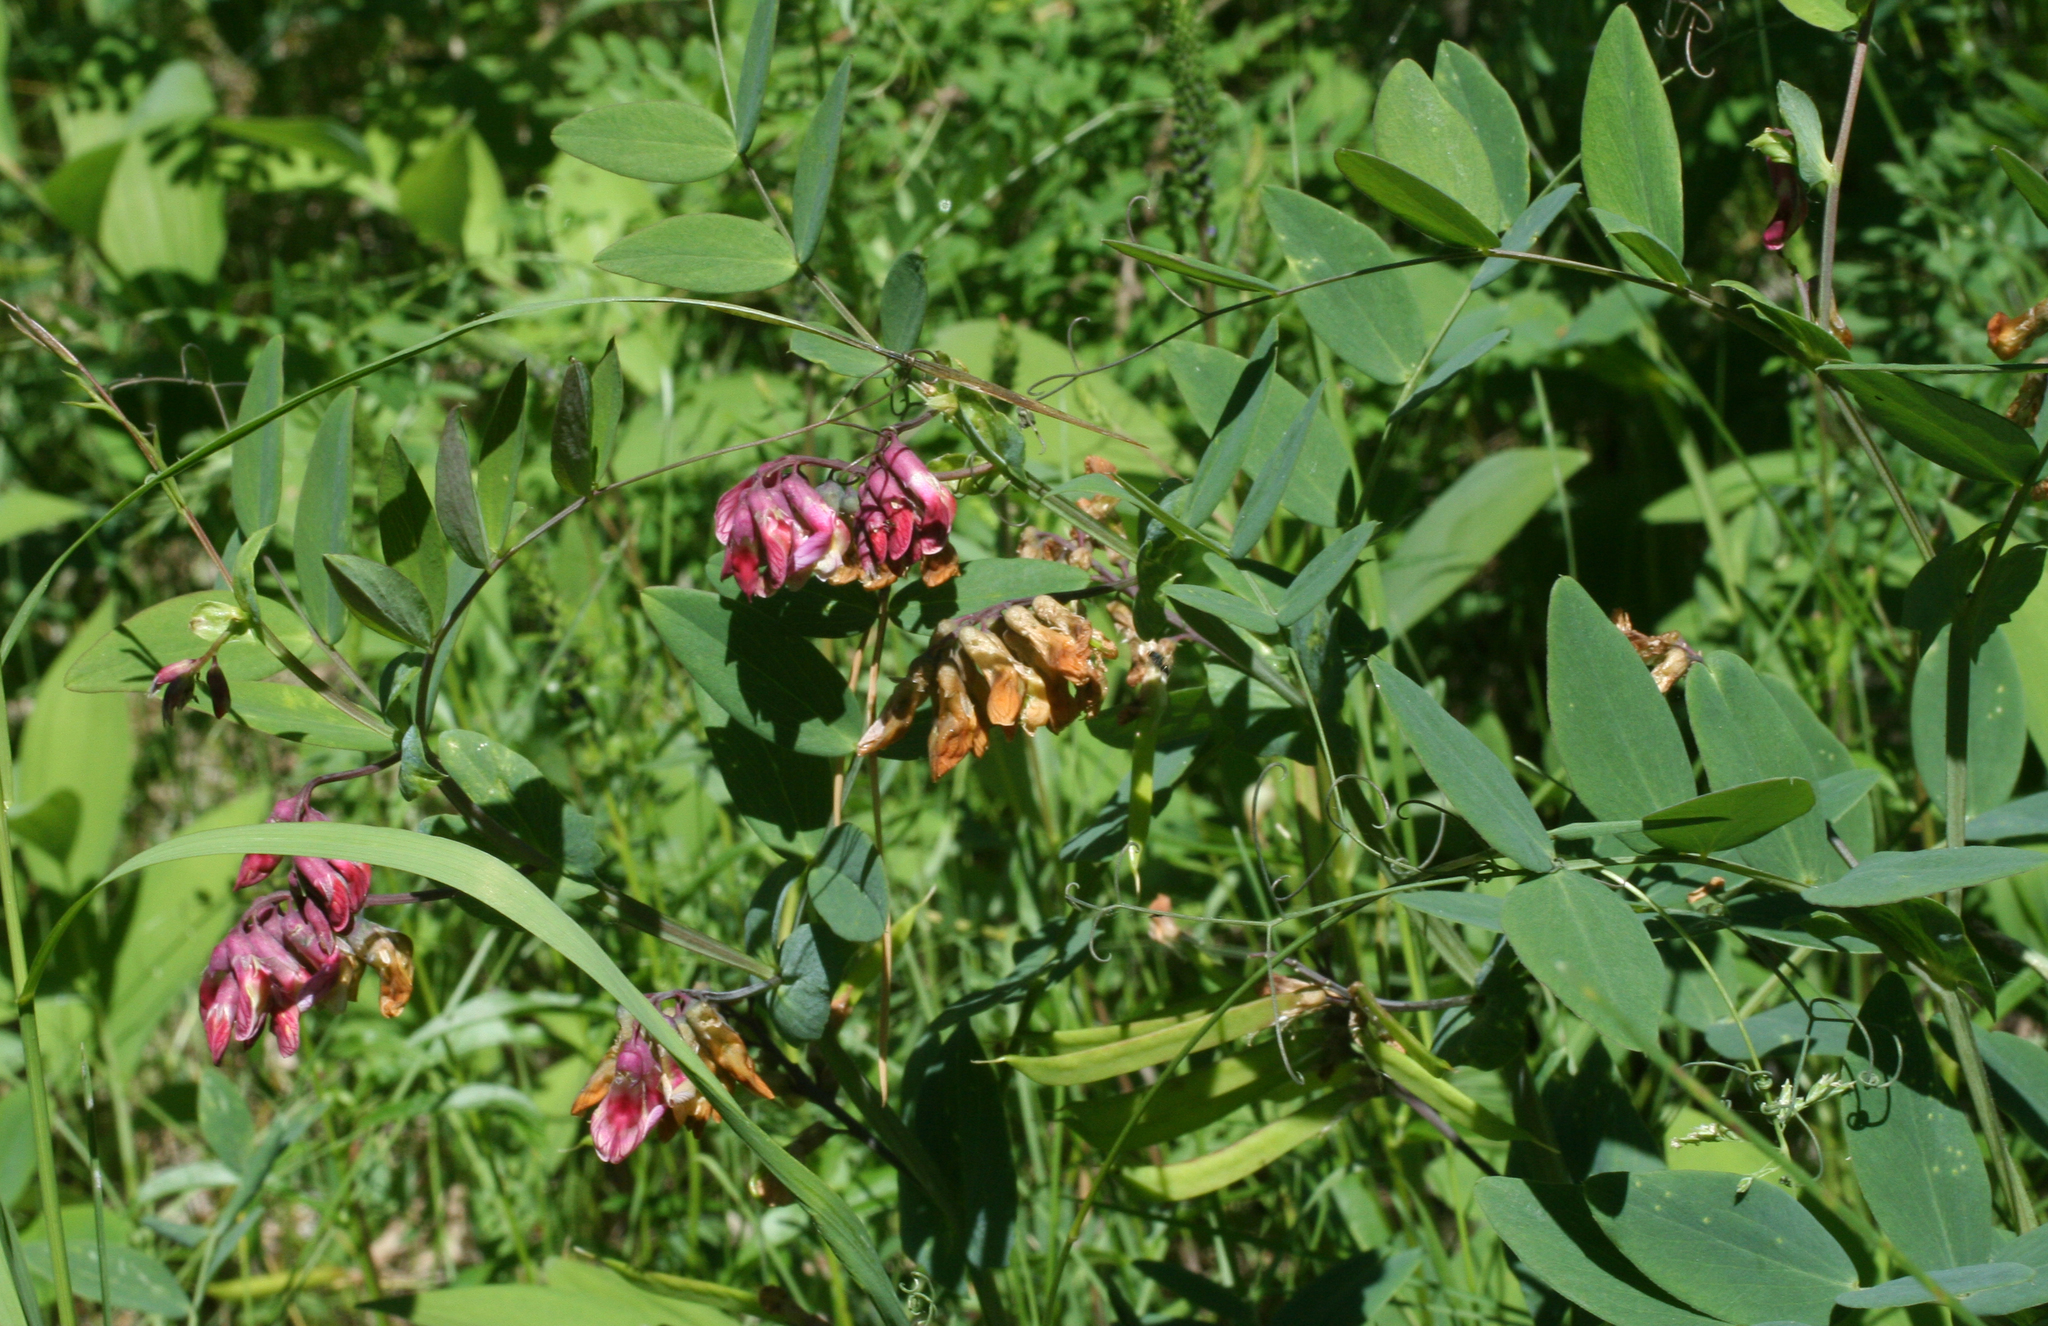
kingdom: Plantae
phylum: Tracheophyta
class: Magnoliopsida
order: Fabales
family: Fabaceae
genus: Lathyrus
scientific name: Lathyrus pisiformis
